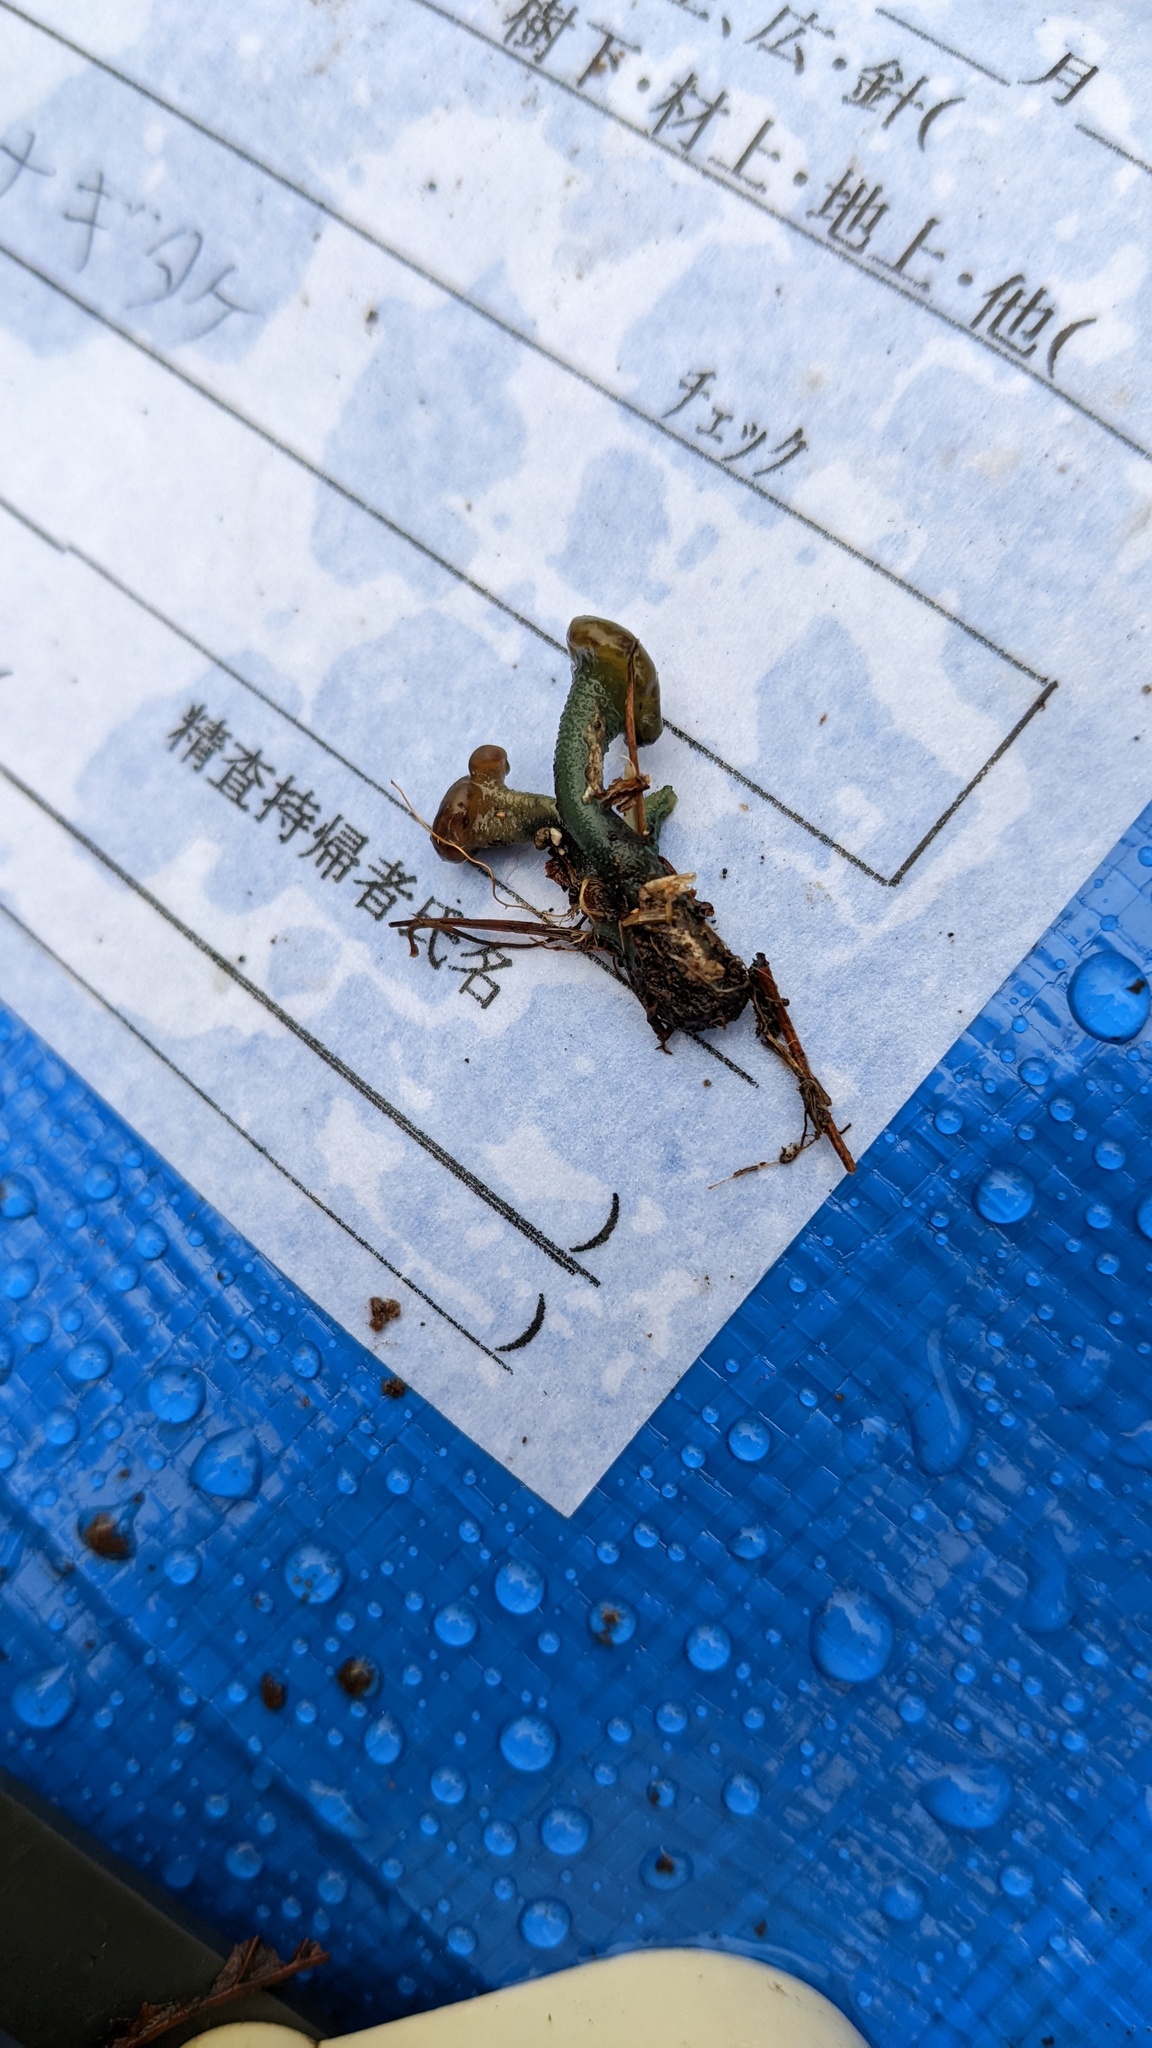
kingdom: Fungi
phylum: Ascomycota
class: Leotiomycetes
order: Leotiales
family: Leotiaceae
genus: Leotia
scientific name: Leotia chlorocephala
